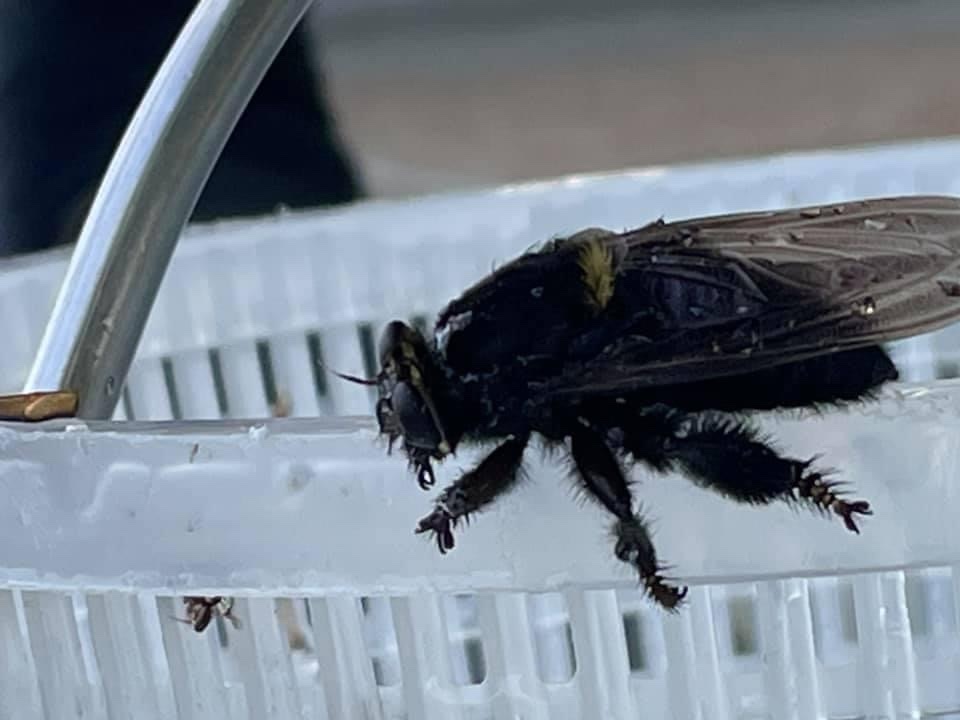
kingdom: Animalia
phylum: Arthropoda
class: Insecta
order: Diptera
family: Asilidae
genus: Mallophora
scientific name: Mallophora leschenaultii
